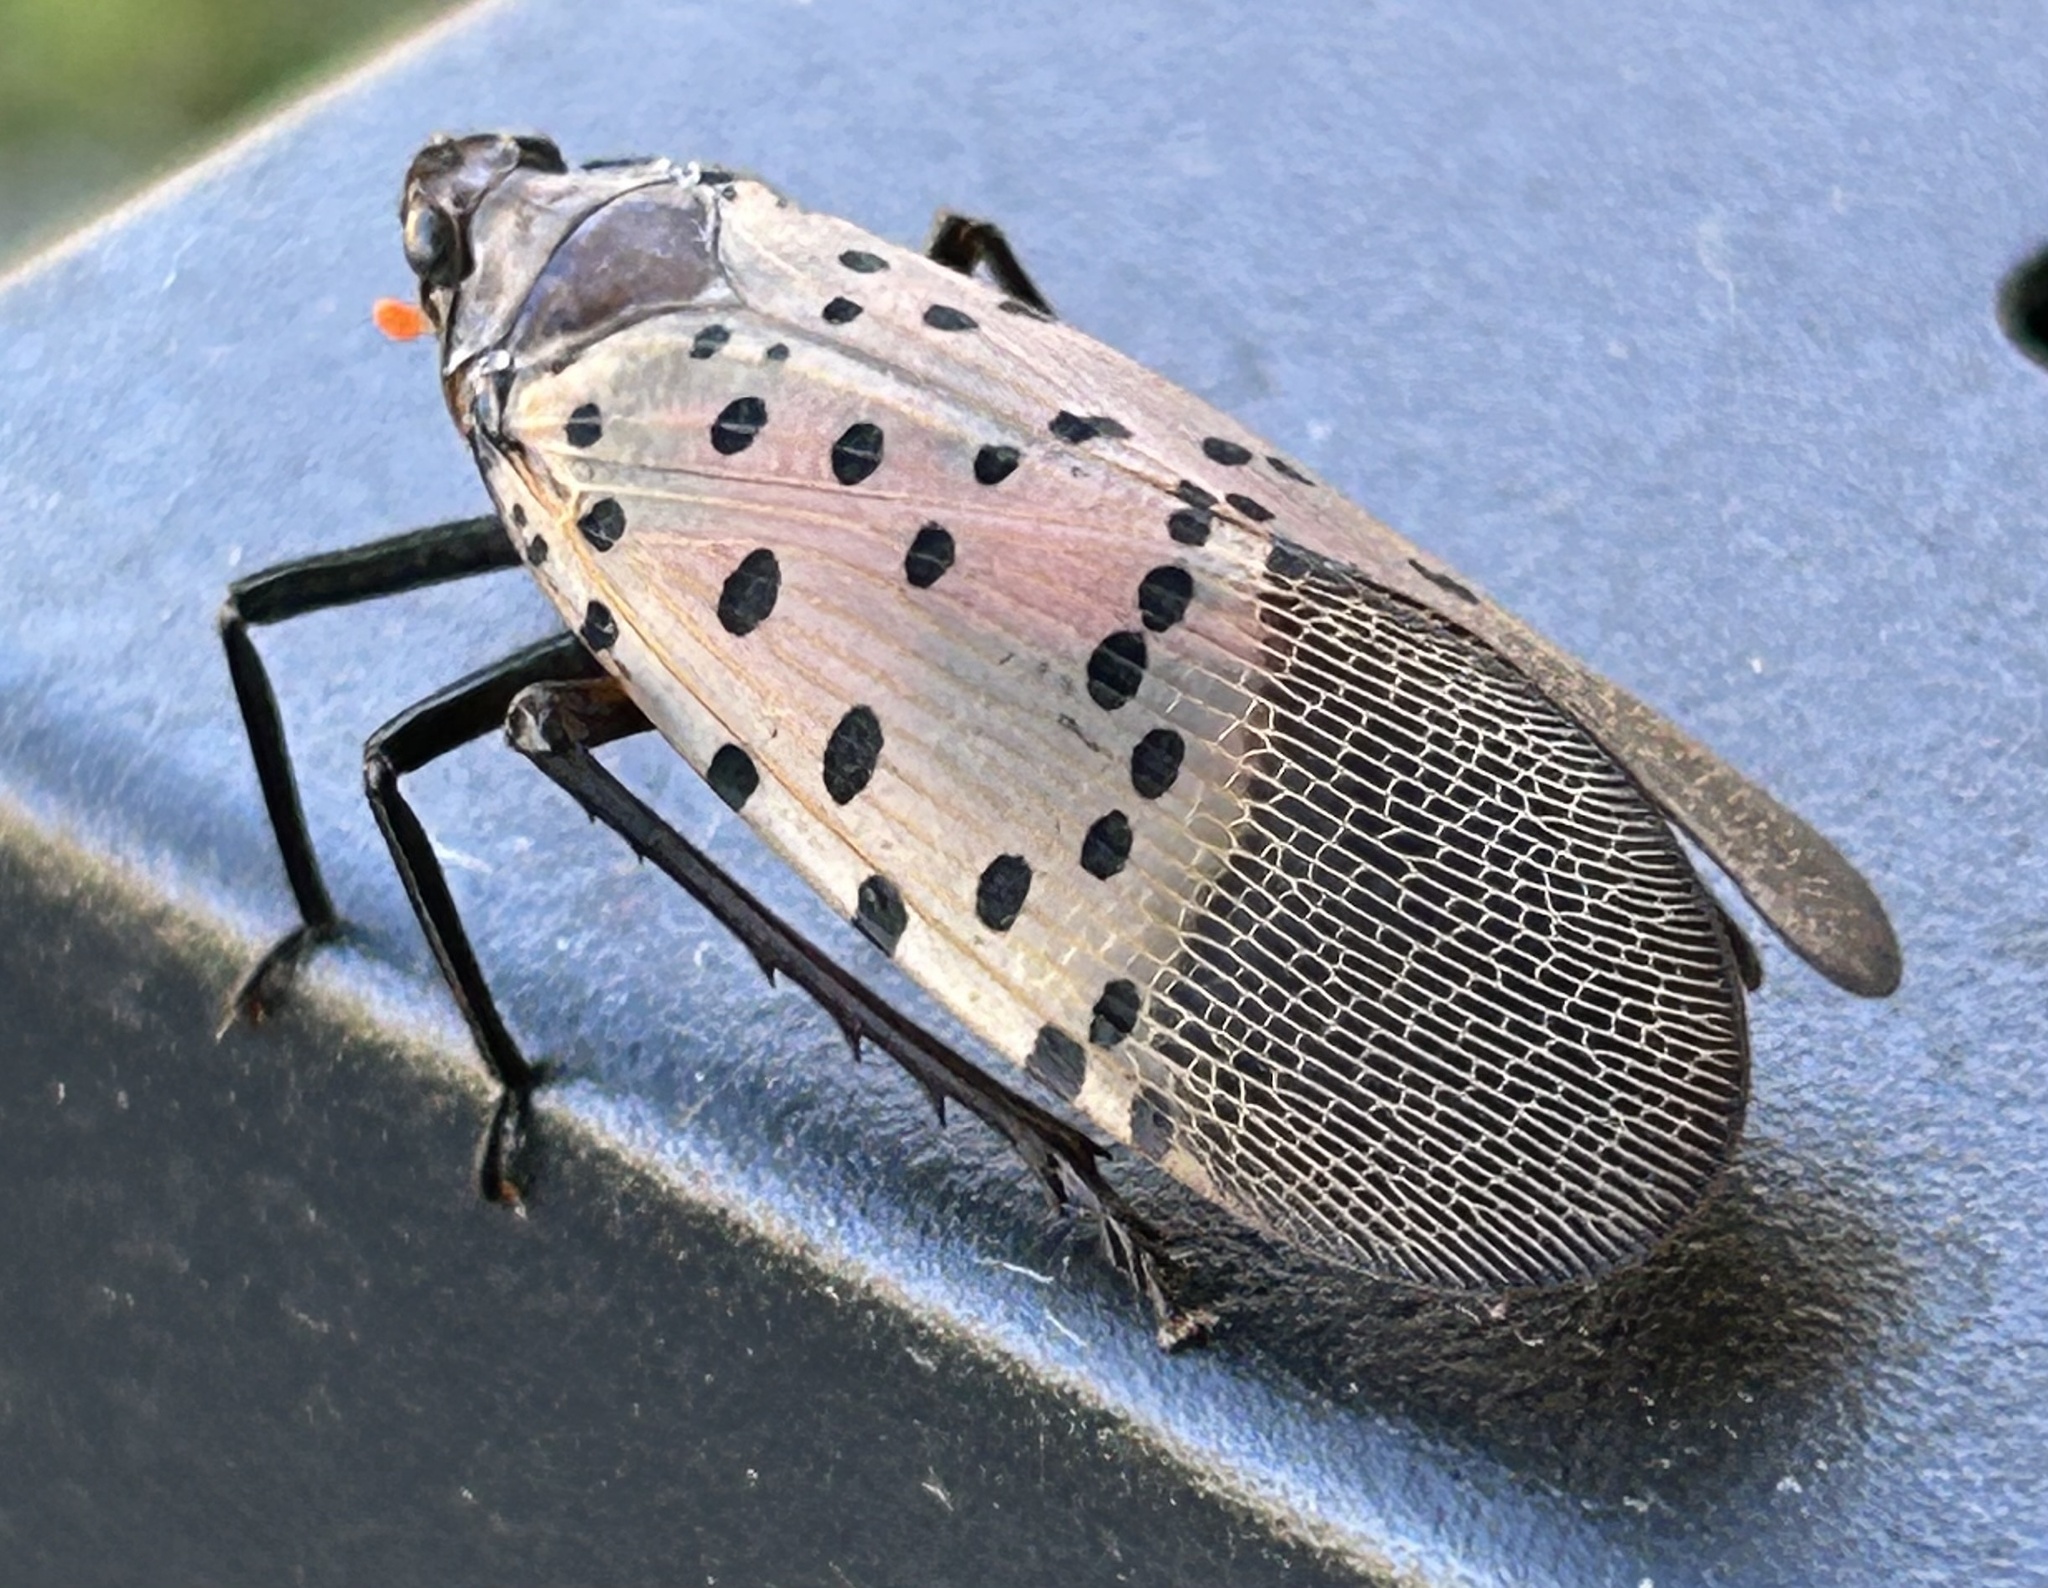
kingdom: Animalia
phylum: Arthropoda
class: Insecta
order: Hemiptera
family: Fulgoridae
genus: Lycorma
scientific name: Lycorma delicatula
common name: Spotted lanternfly
